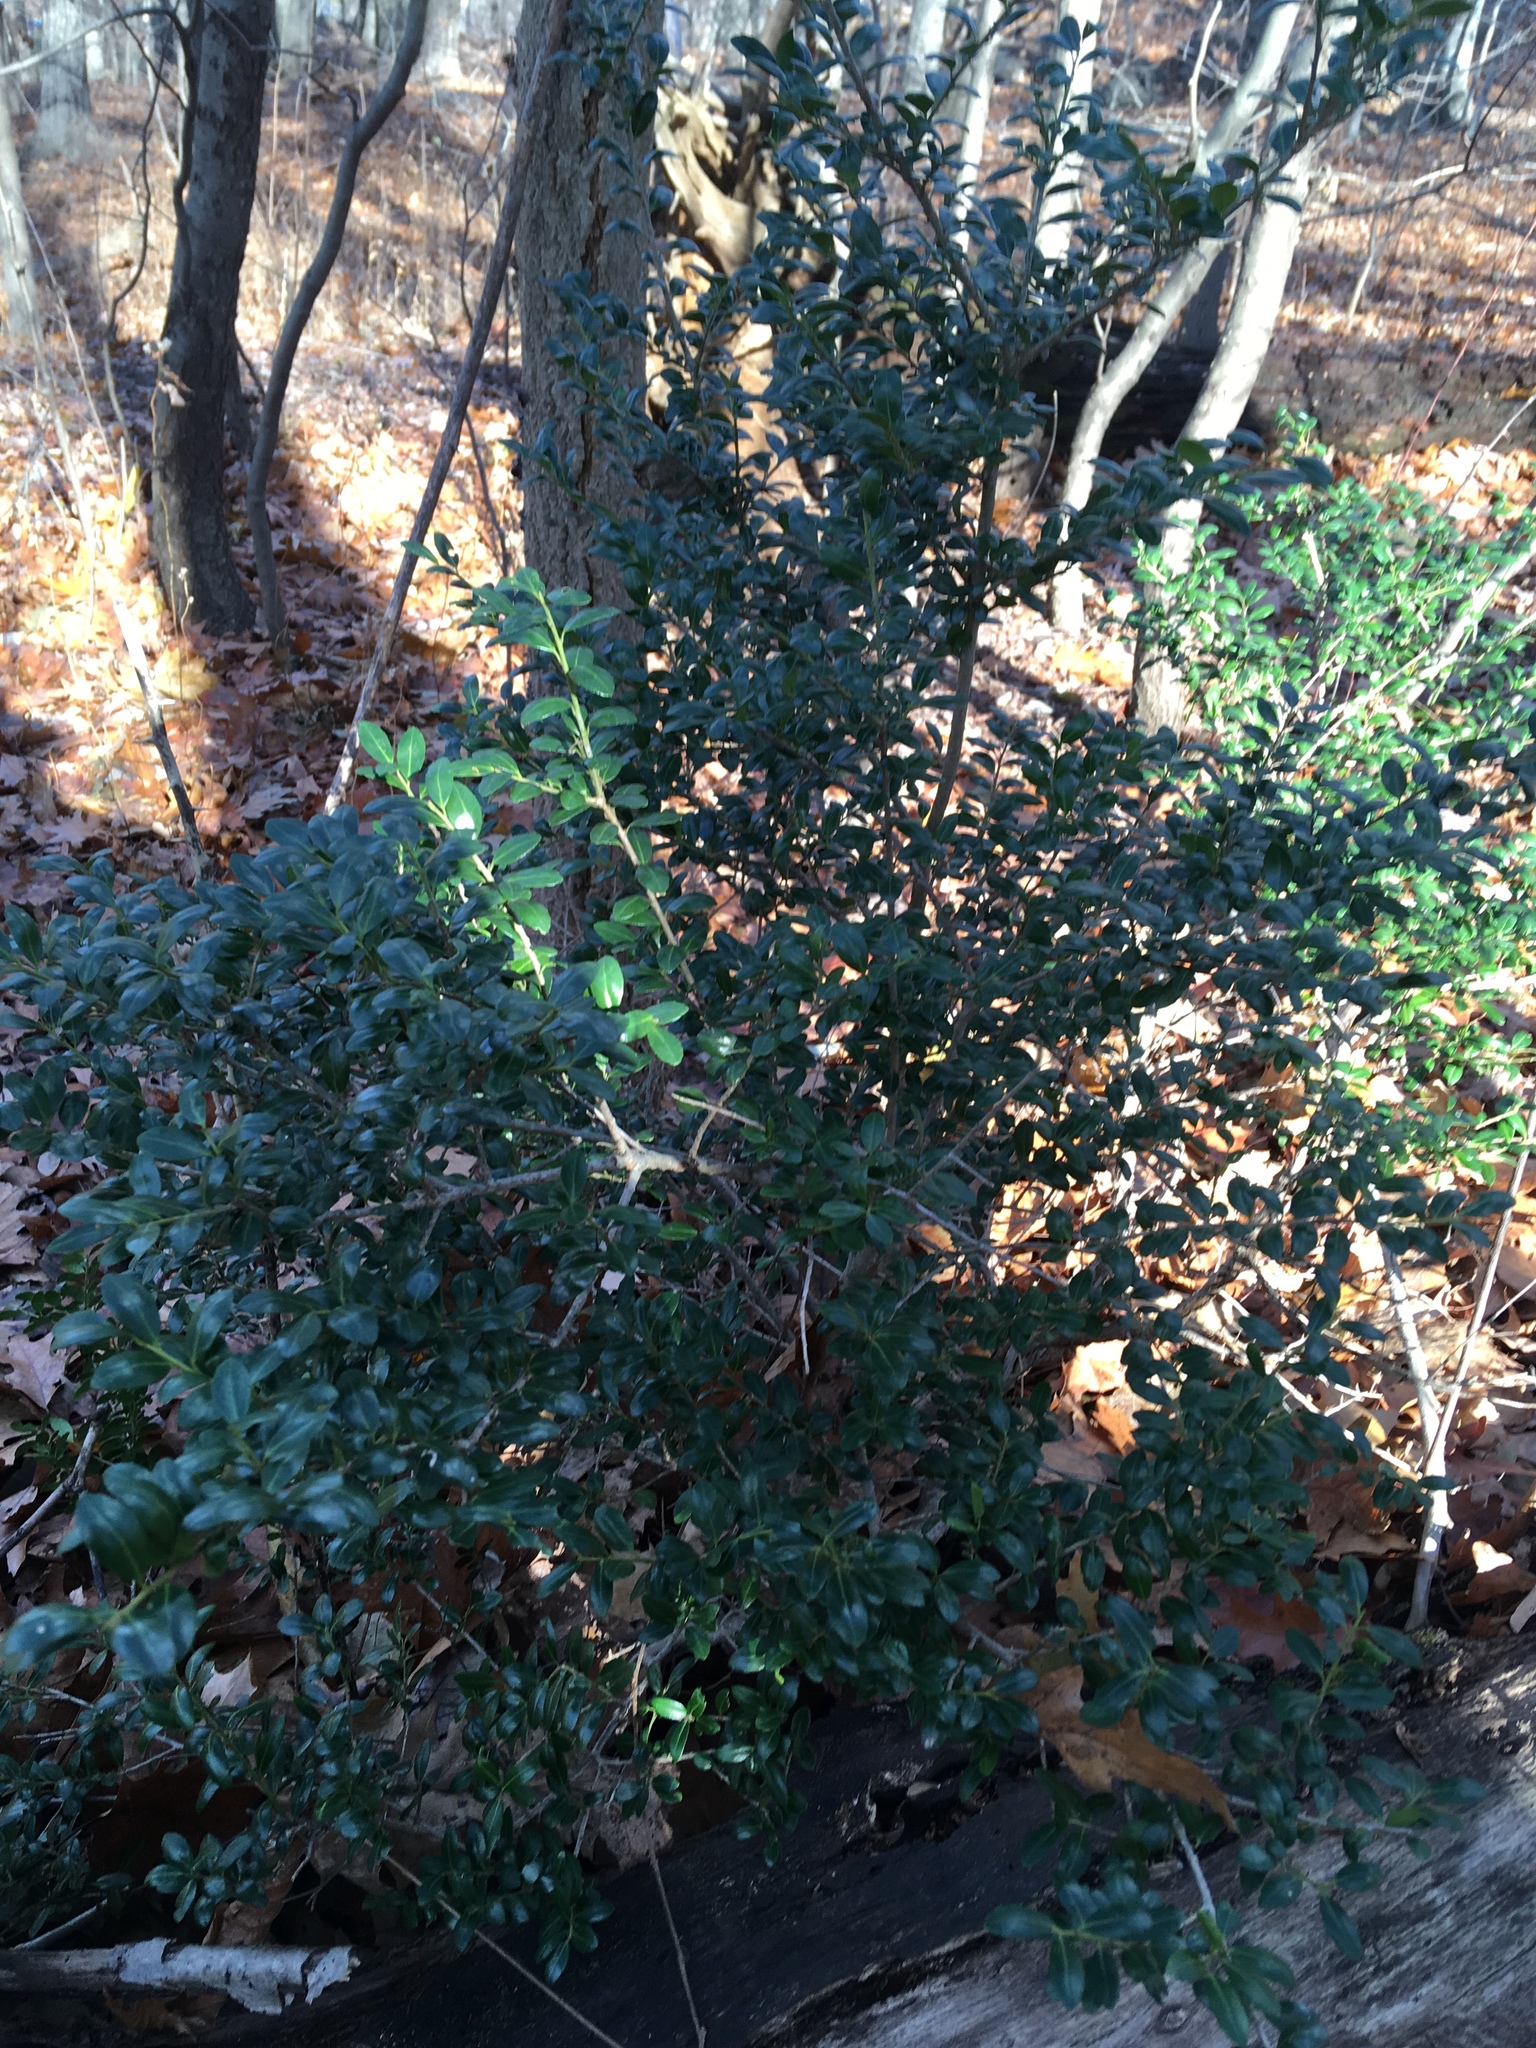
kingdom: Plantae
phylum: Tracheophyta
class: Magnoliopsida
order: Aquifoliales
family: Aquifoliaceae
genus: Ilex
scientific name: Ilex crenata
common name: Japanese holly
